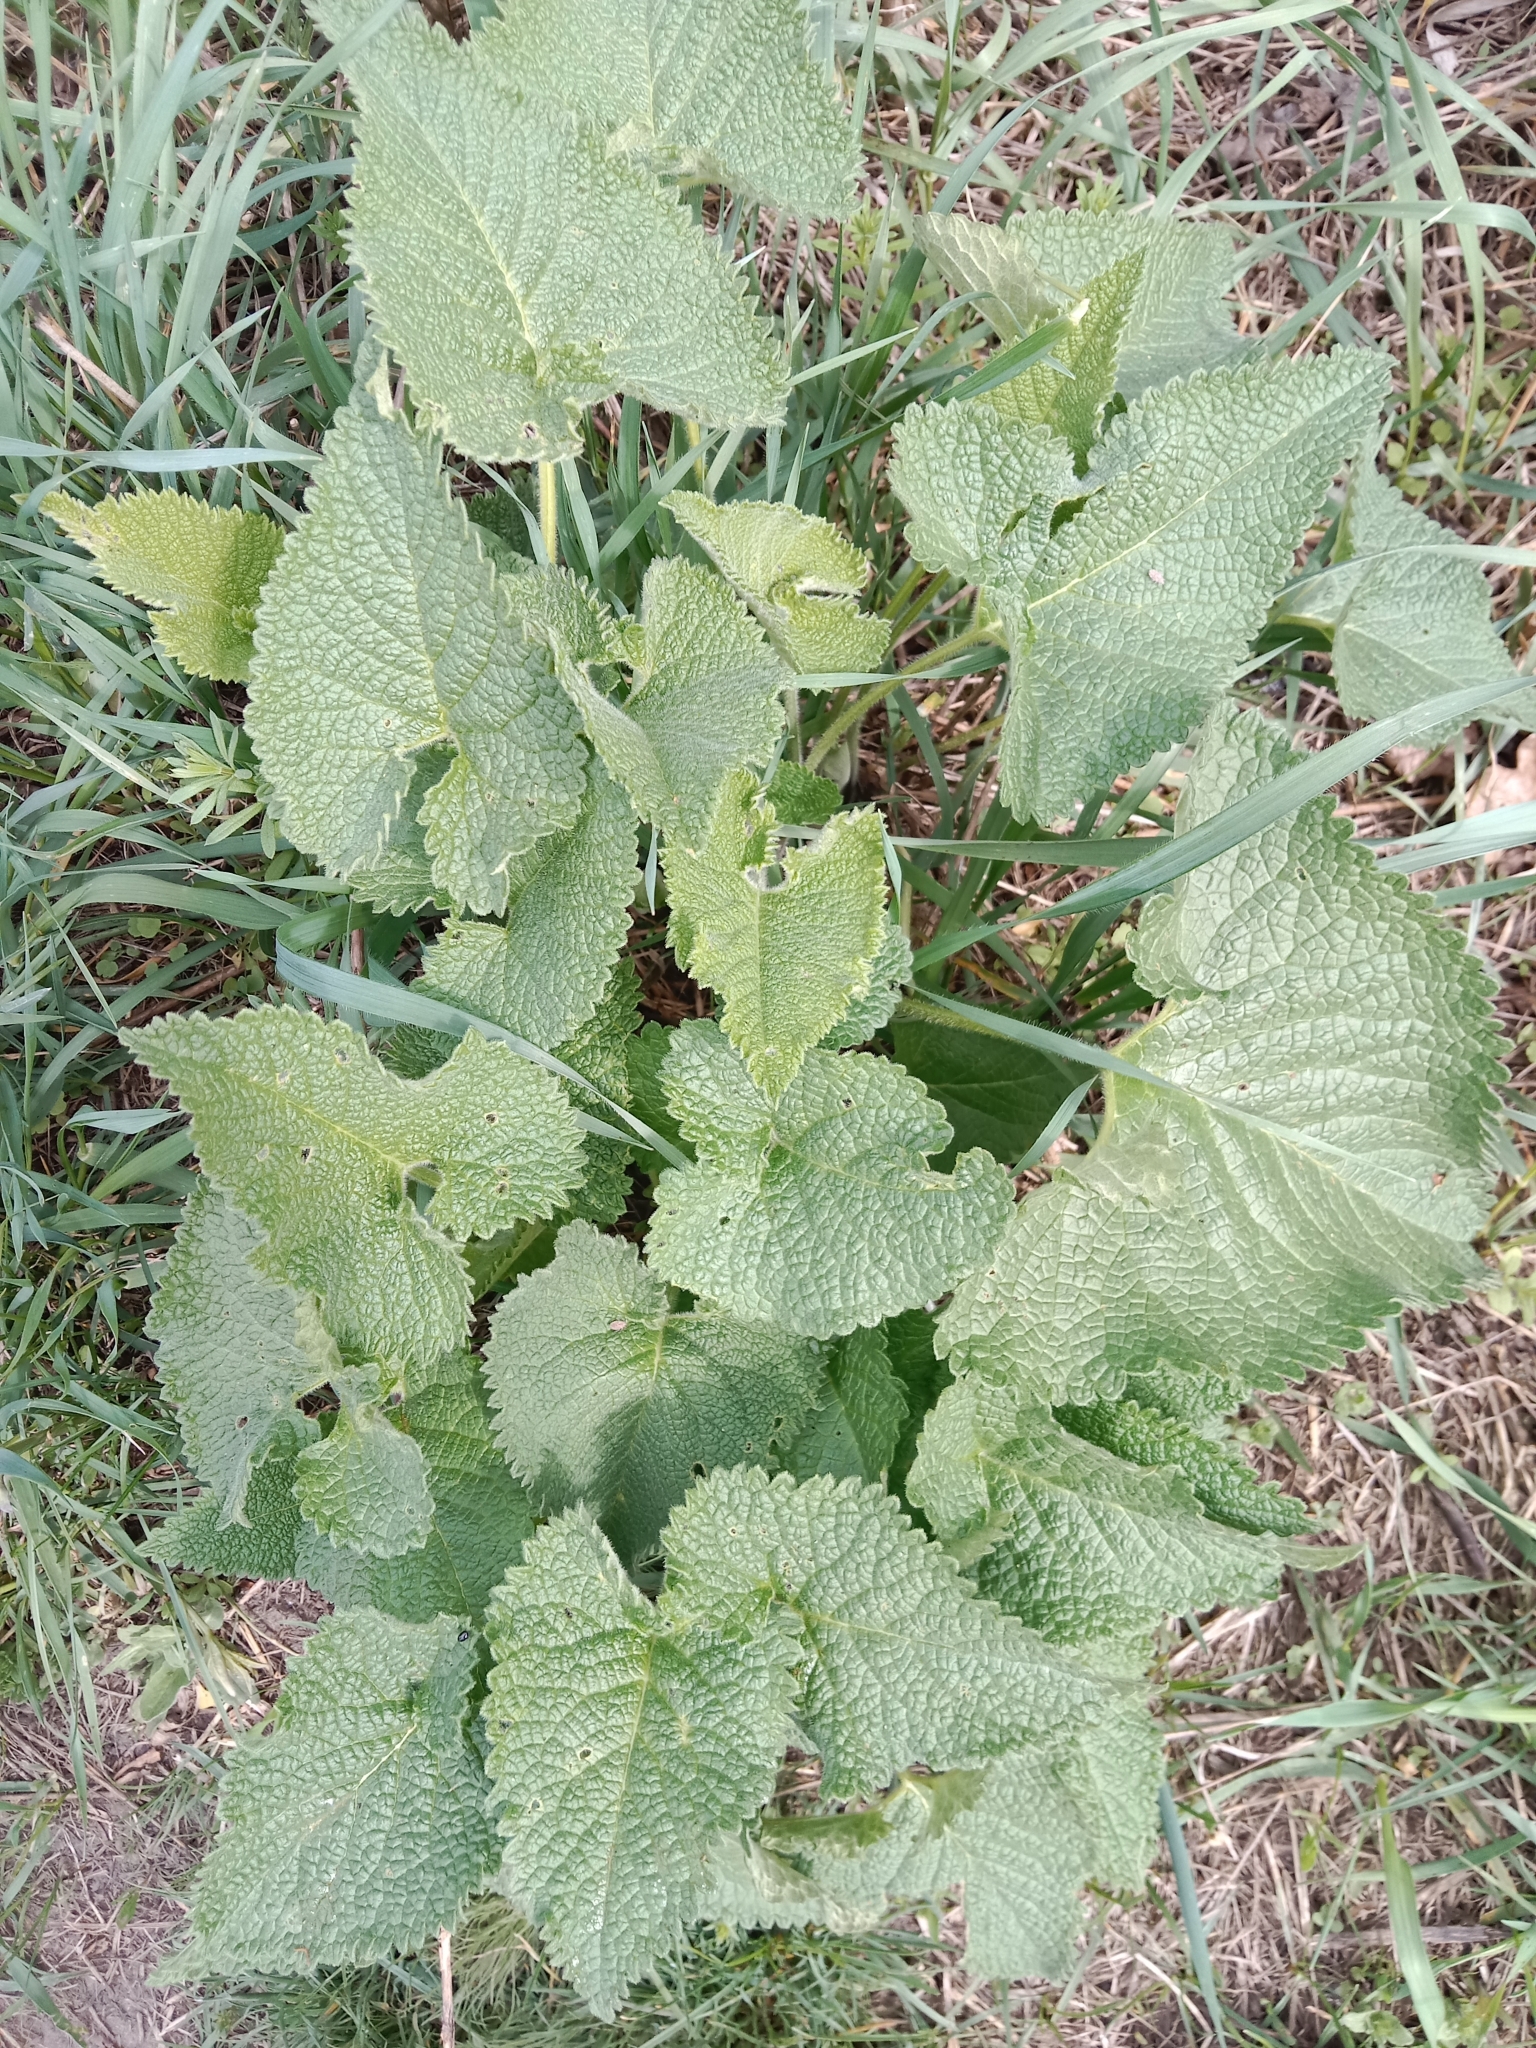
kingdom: Plantae
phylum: Tracheophyta
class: Magnoliopsida
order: Lamiales
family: Lamiaceae
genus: Phlomoides
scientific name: Phlomoides tuberosa
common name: Tuberous jerusalem sage
